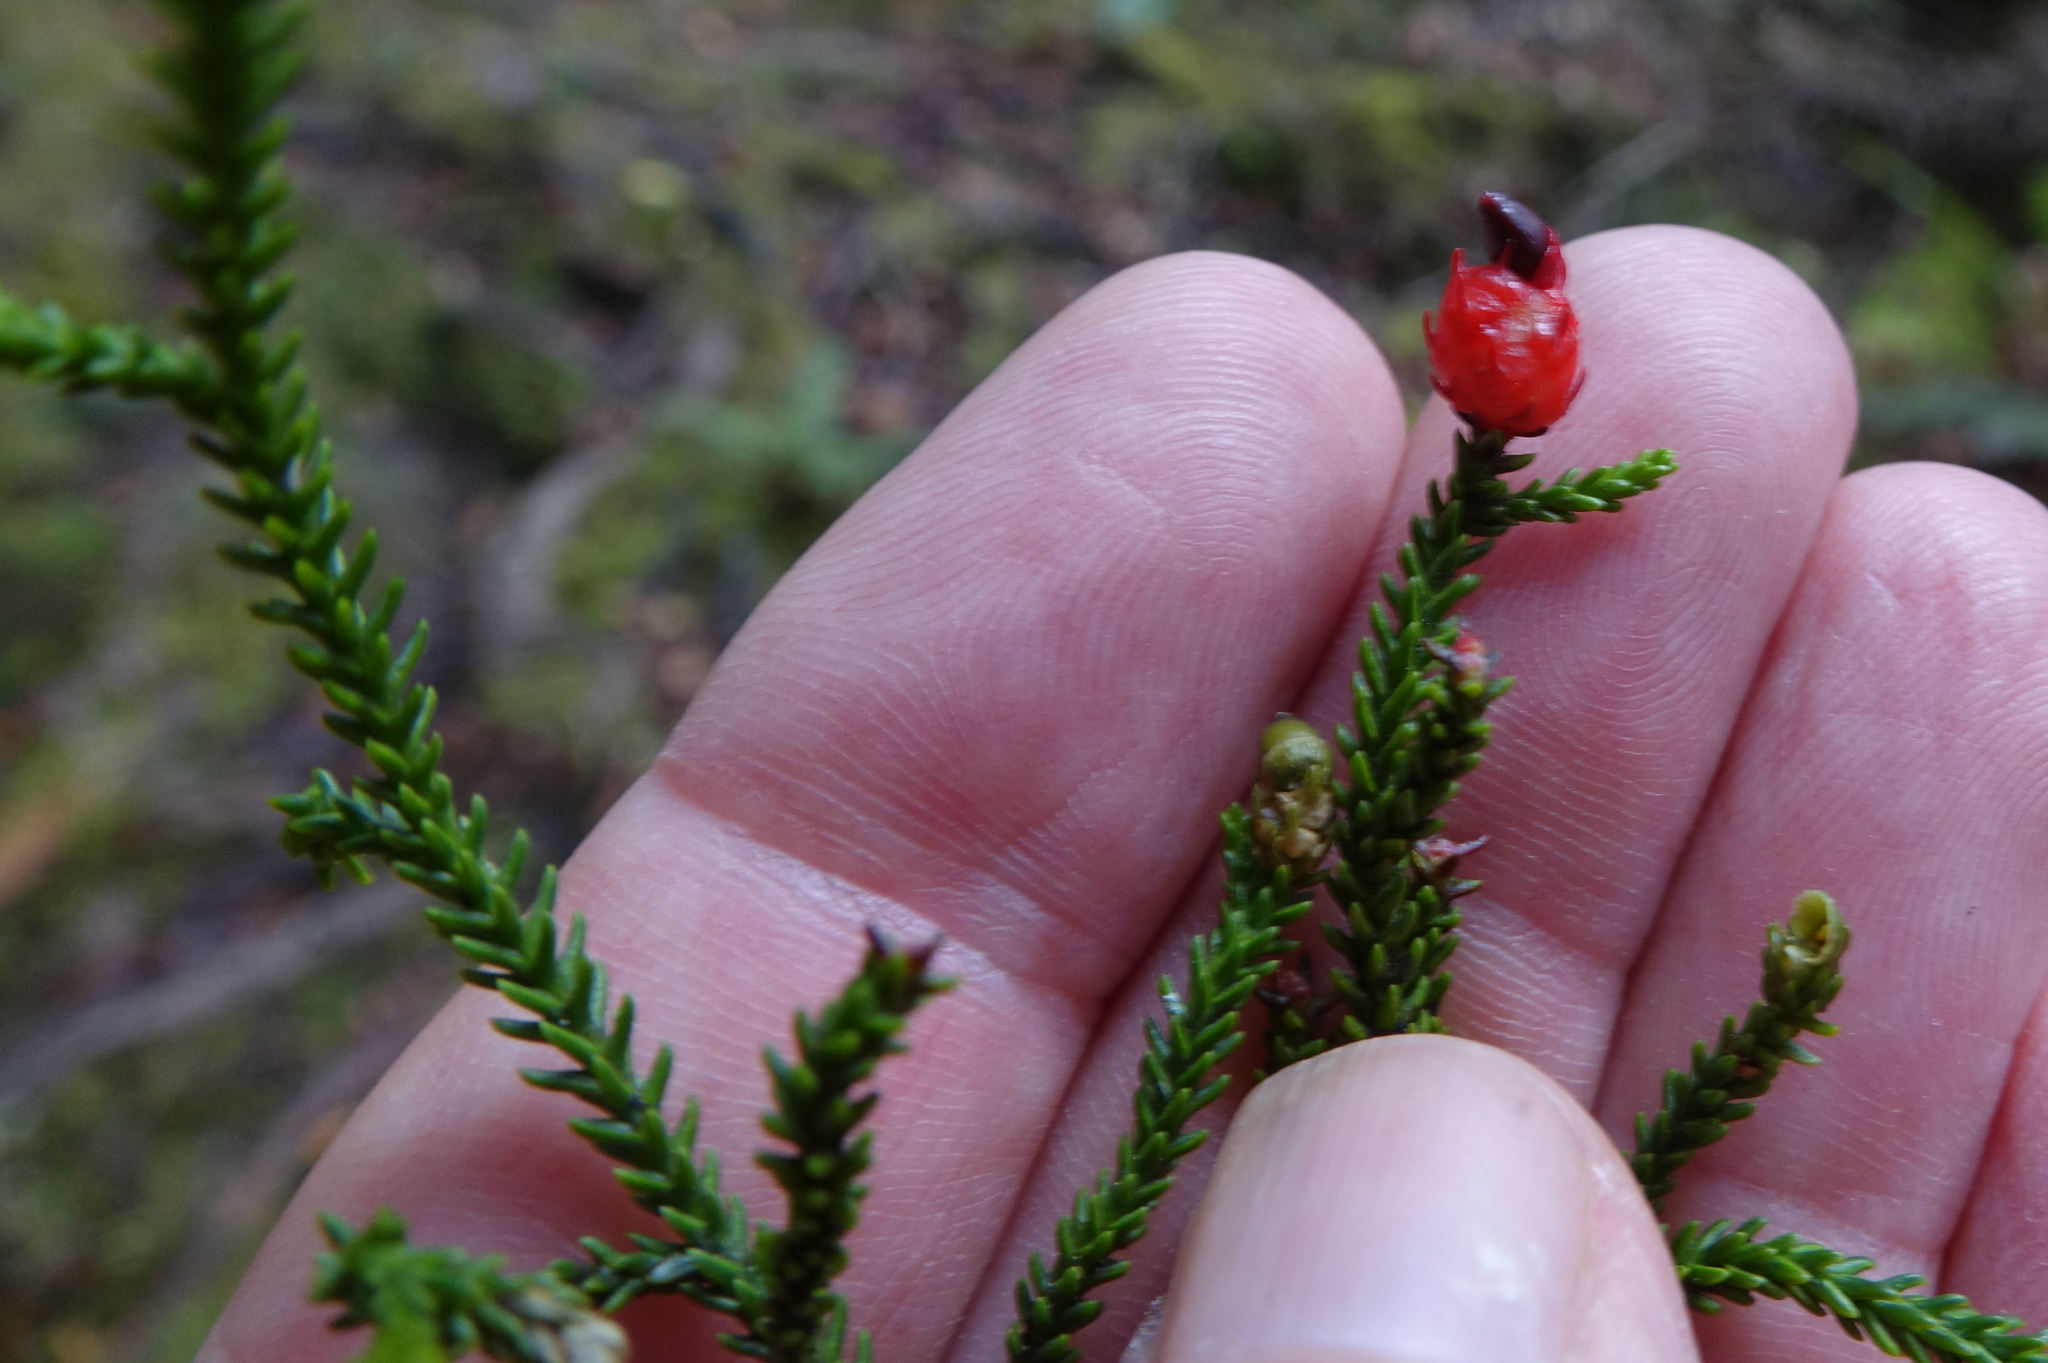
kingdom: Plantae
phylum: Tracheophyta
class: Pinopsida
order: Pinales
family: Podocarpaceae
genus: Dacrydium
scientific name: Dacrydium cupressinum
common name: Red pine
